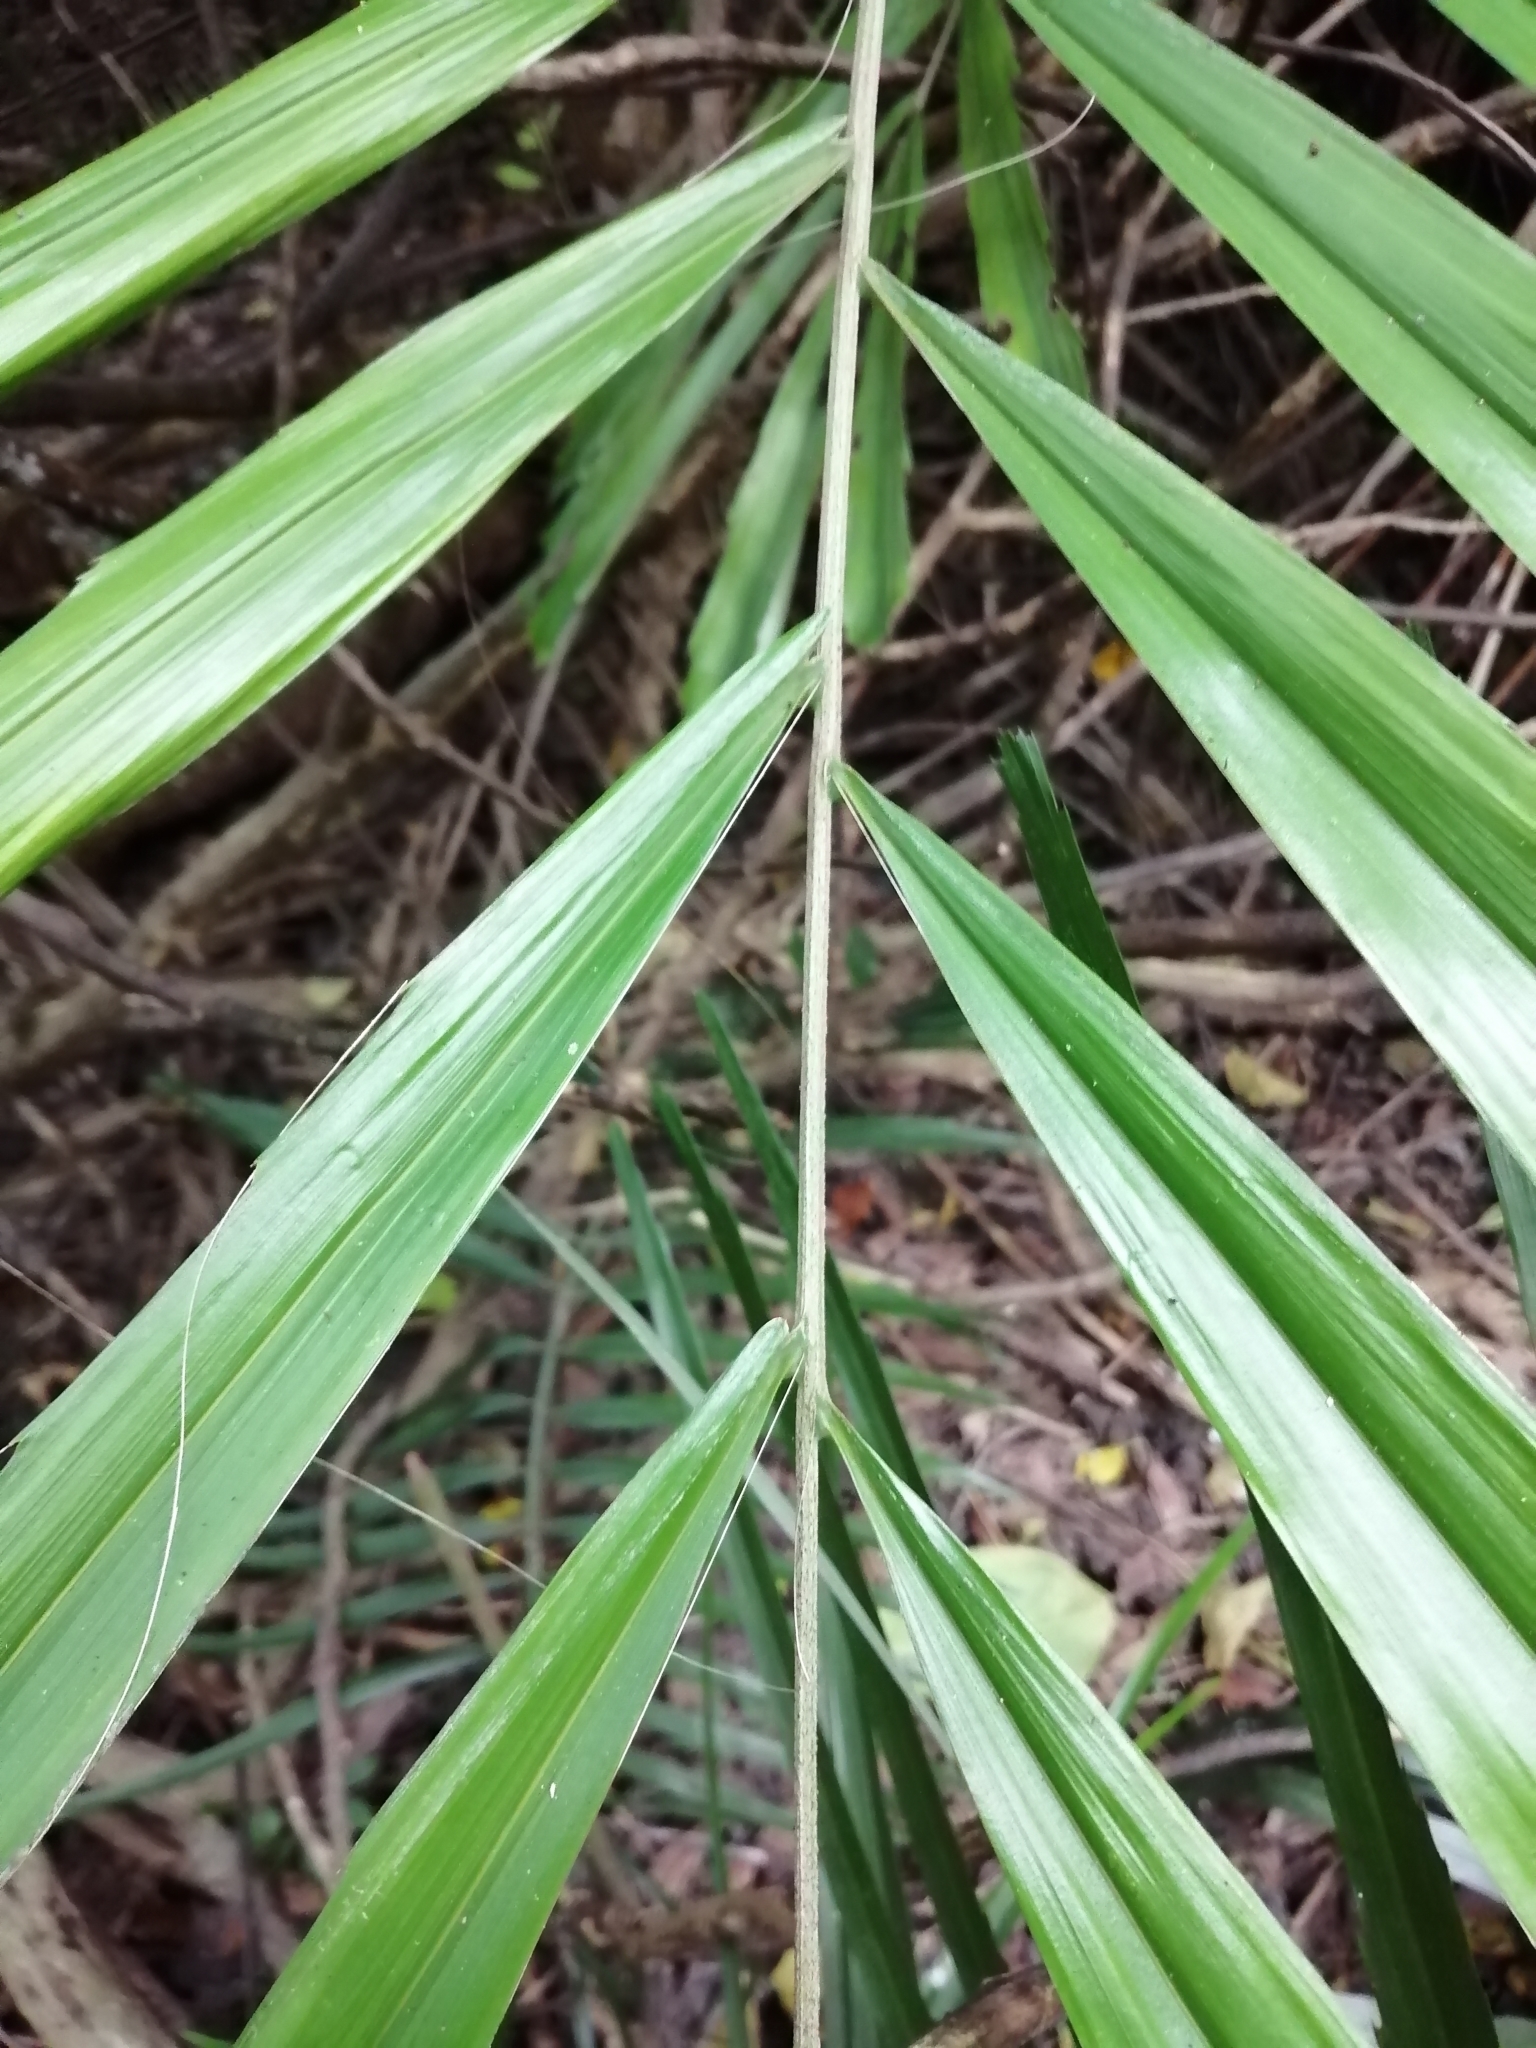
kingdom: Plantae
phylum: Tracheophyta
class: Liliopsida
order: Arecales
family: Arecaceae
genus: Arenga
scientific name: Arenga engleri
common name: Formosan sugar palm
